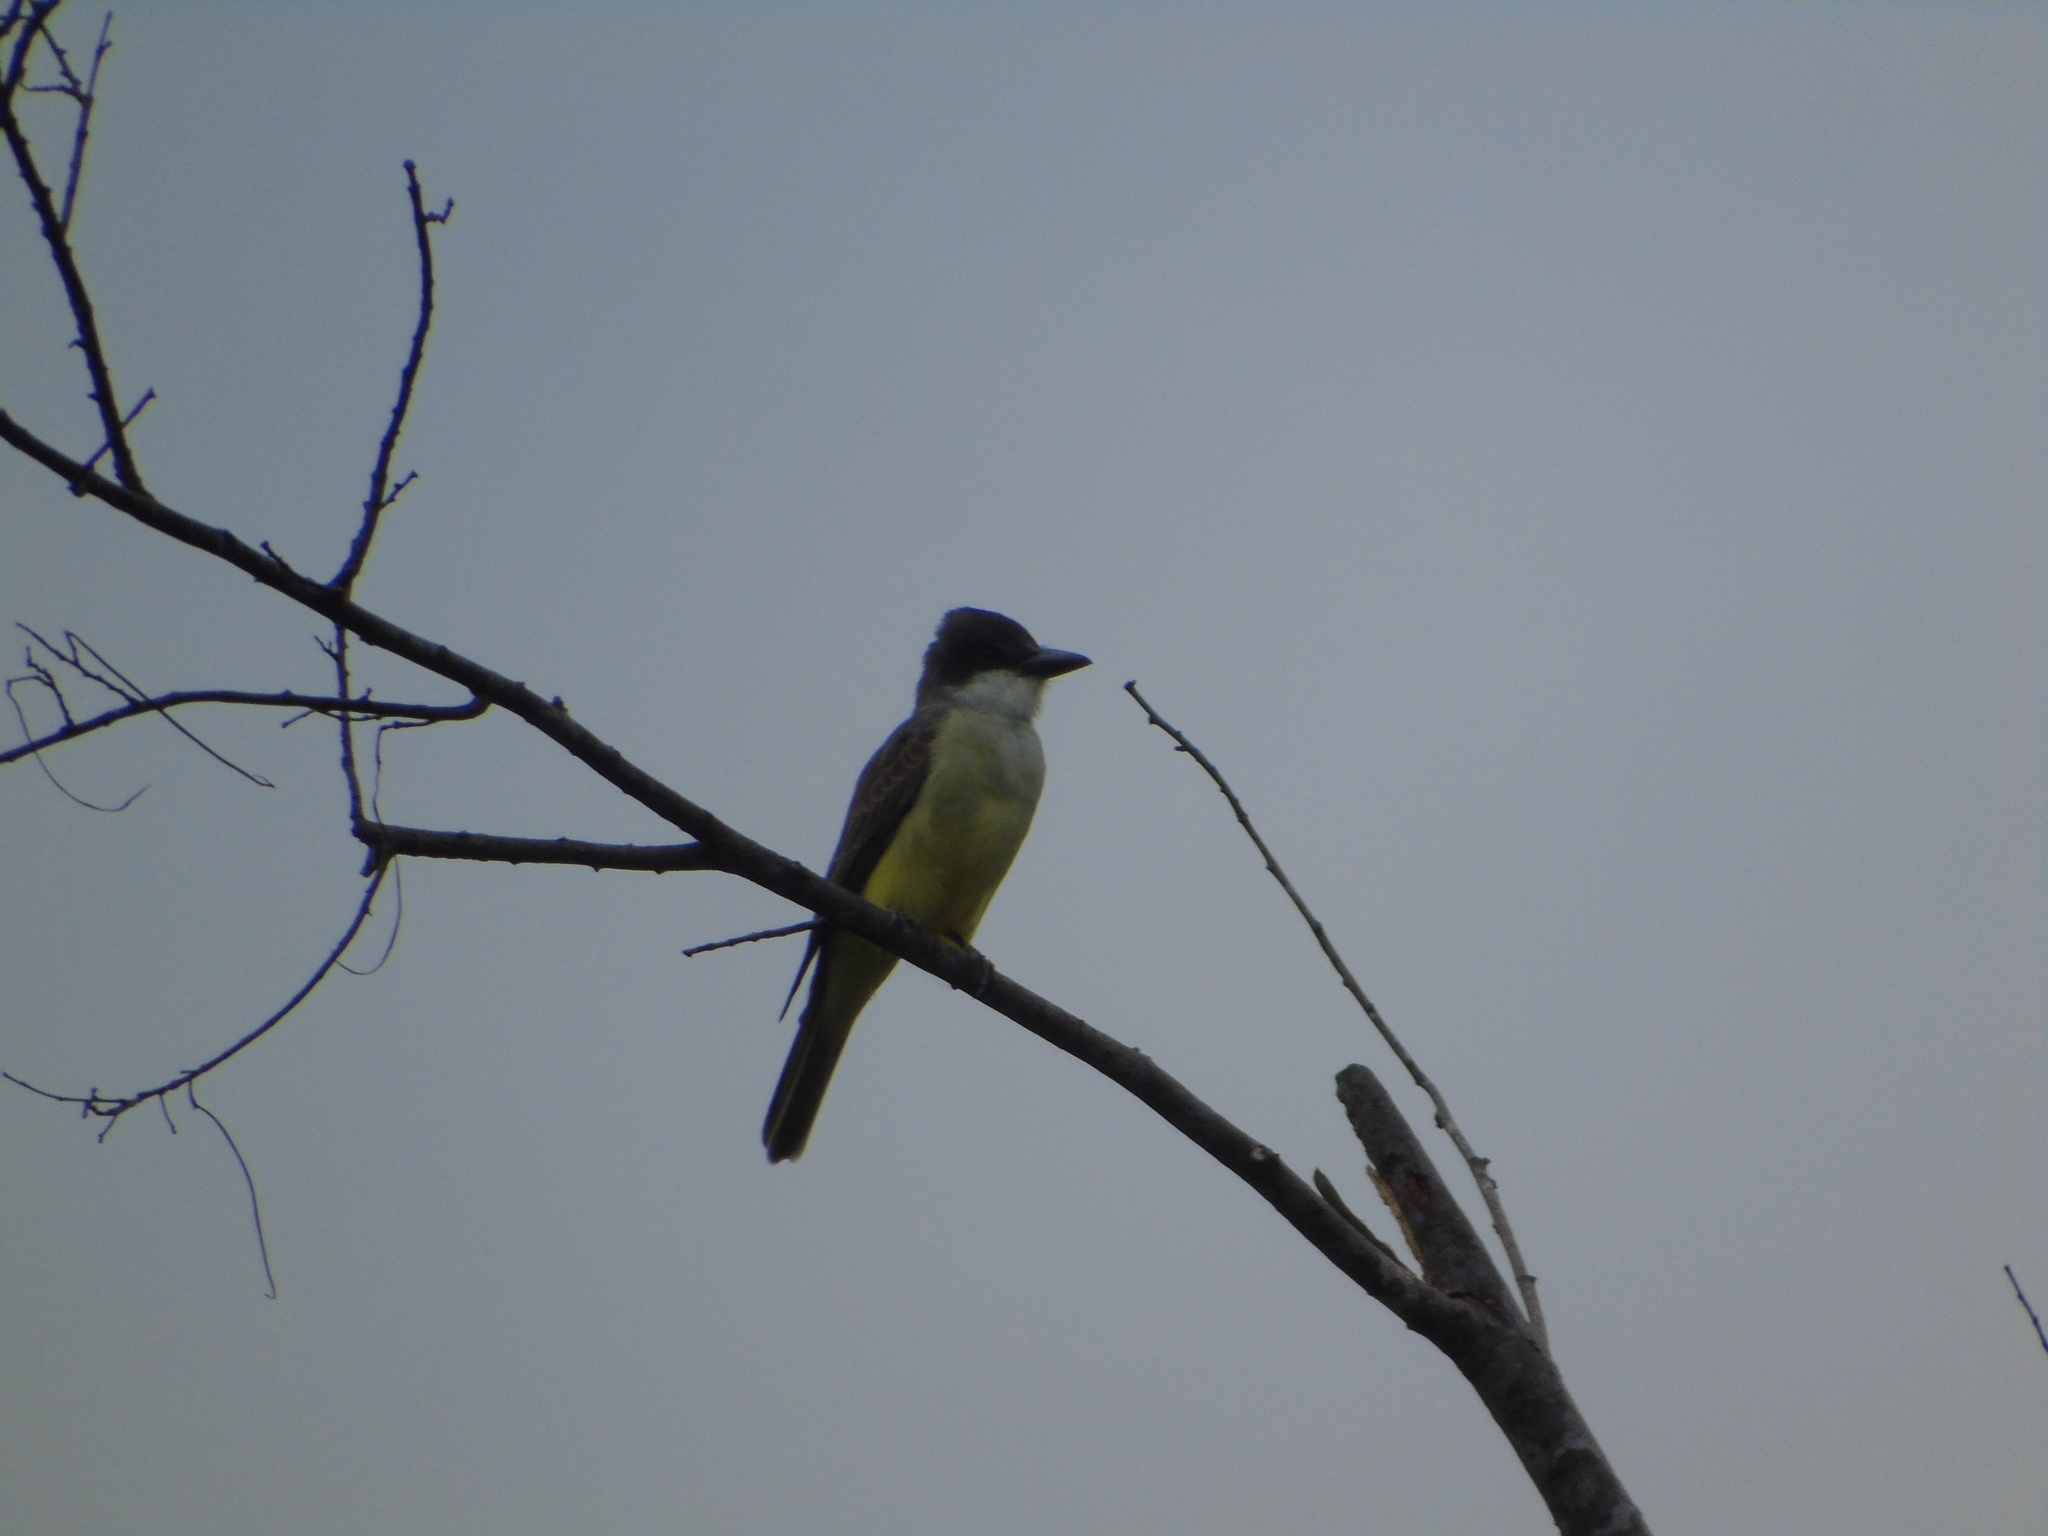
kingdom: Animalia
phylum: Chordata
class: Aves
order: Passeriformes
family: Tyrannidae
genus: Tyrannus
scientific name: Tyrannus crassirostris
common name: Thick-billed kingbird
